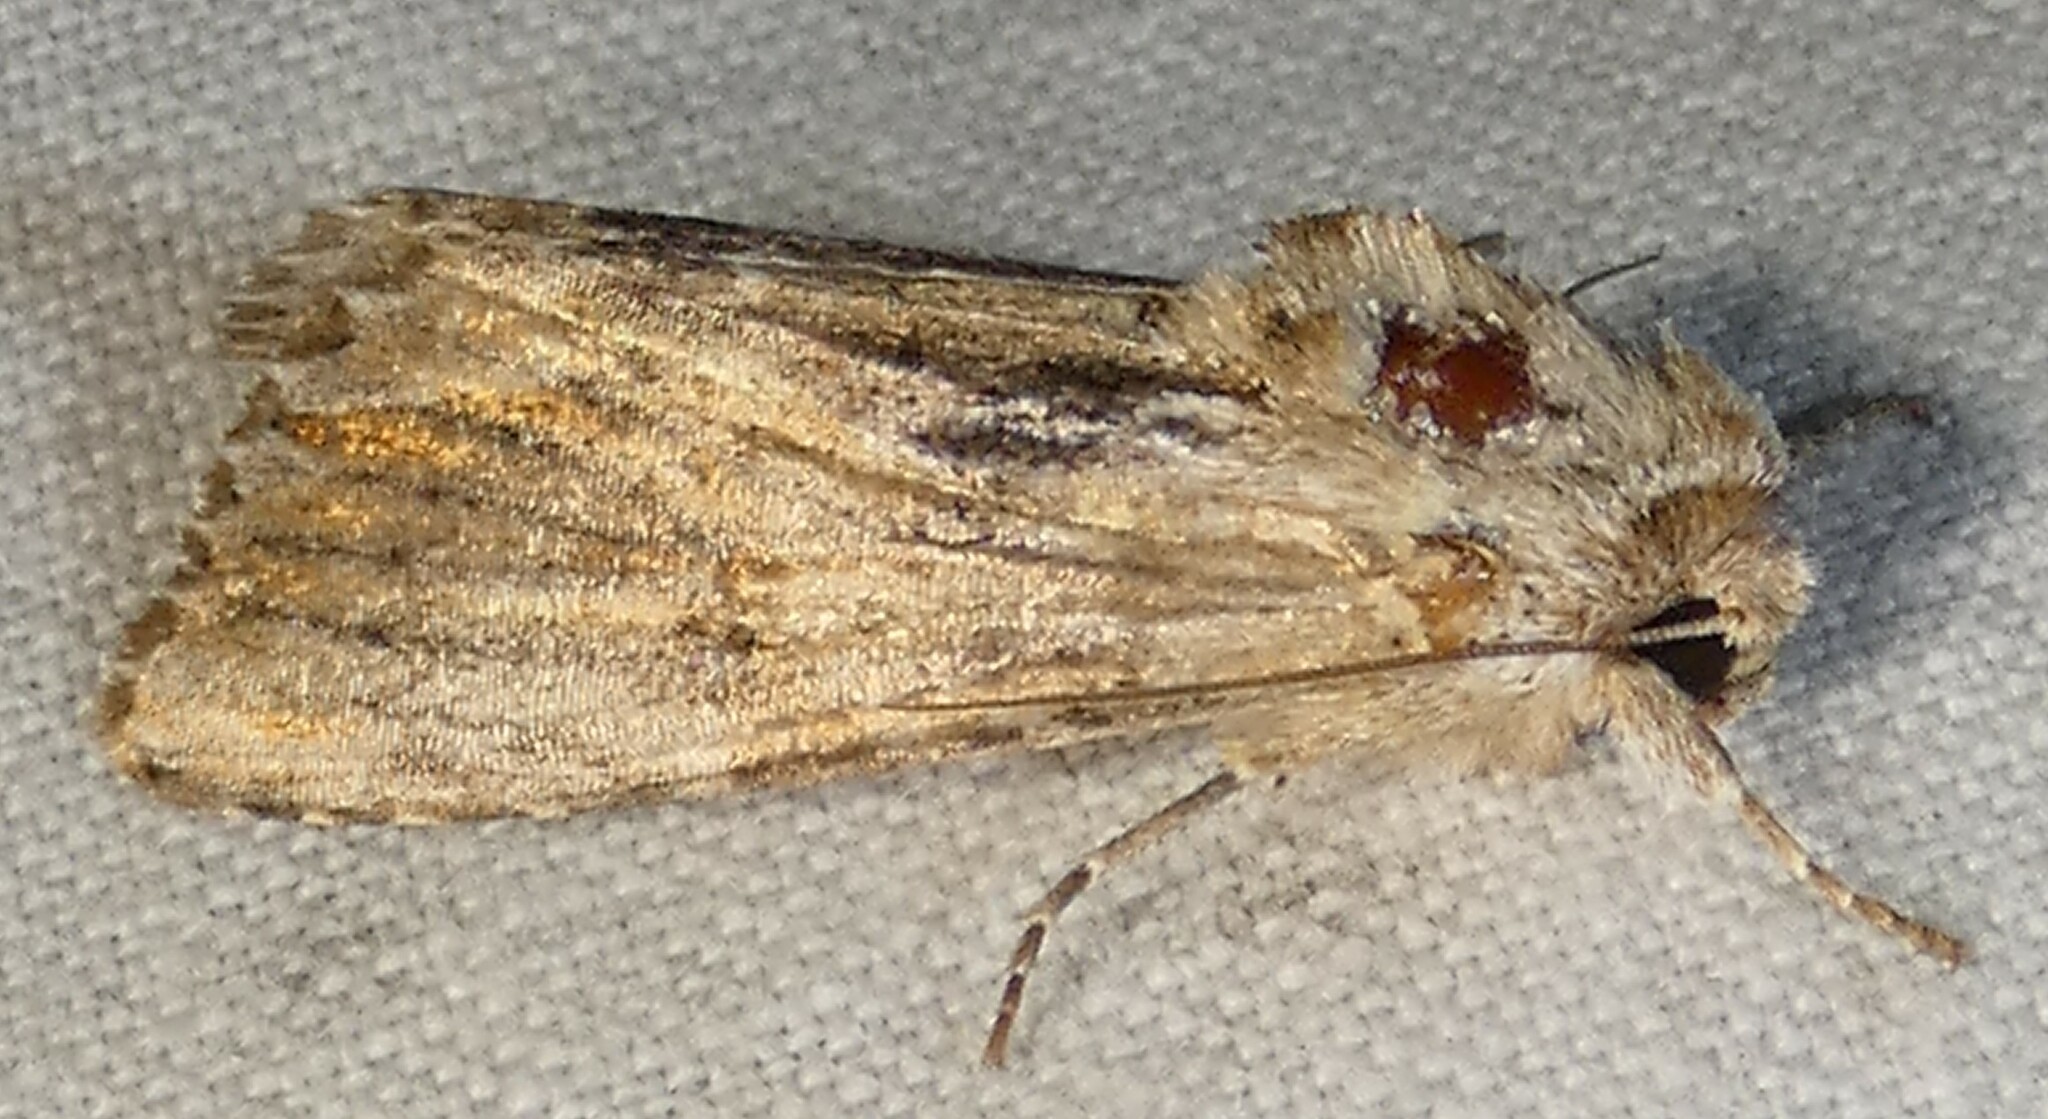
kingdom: Animalia
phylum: Arthropoda
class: Insecta
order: Lepidoptera
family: Noctuidae
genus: Spodoptera
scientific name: Spodoptera eridania
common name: Southern army worm
